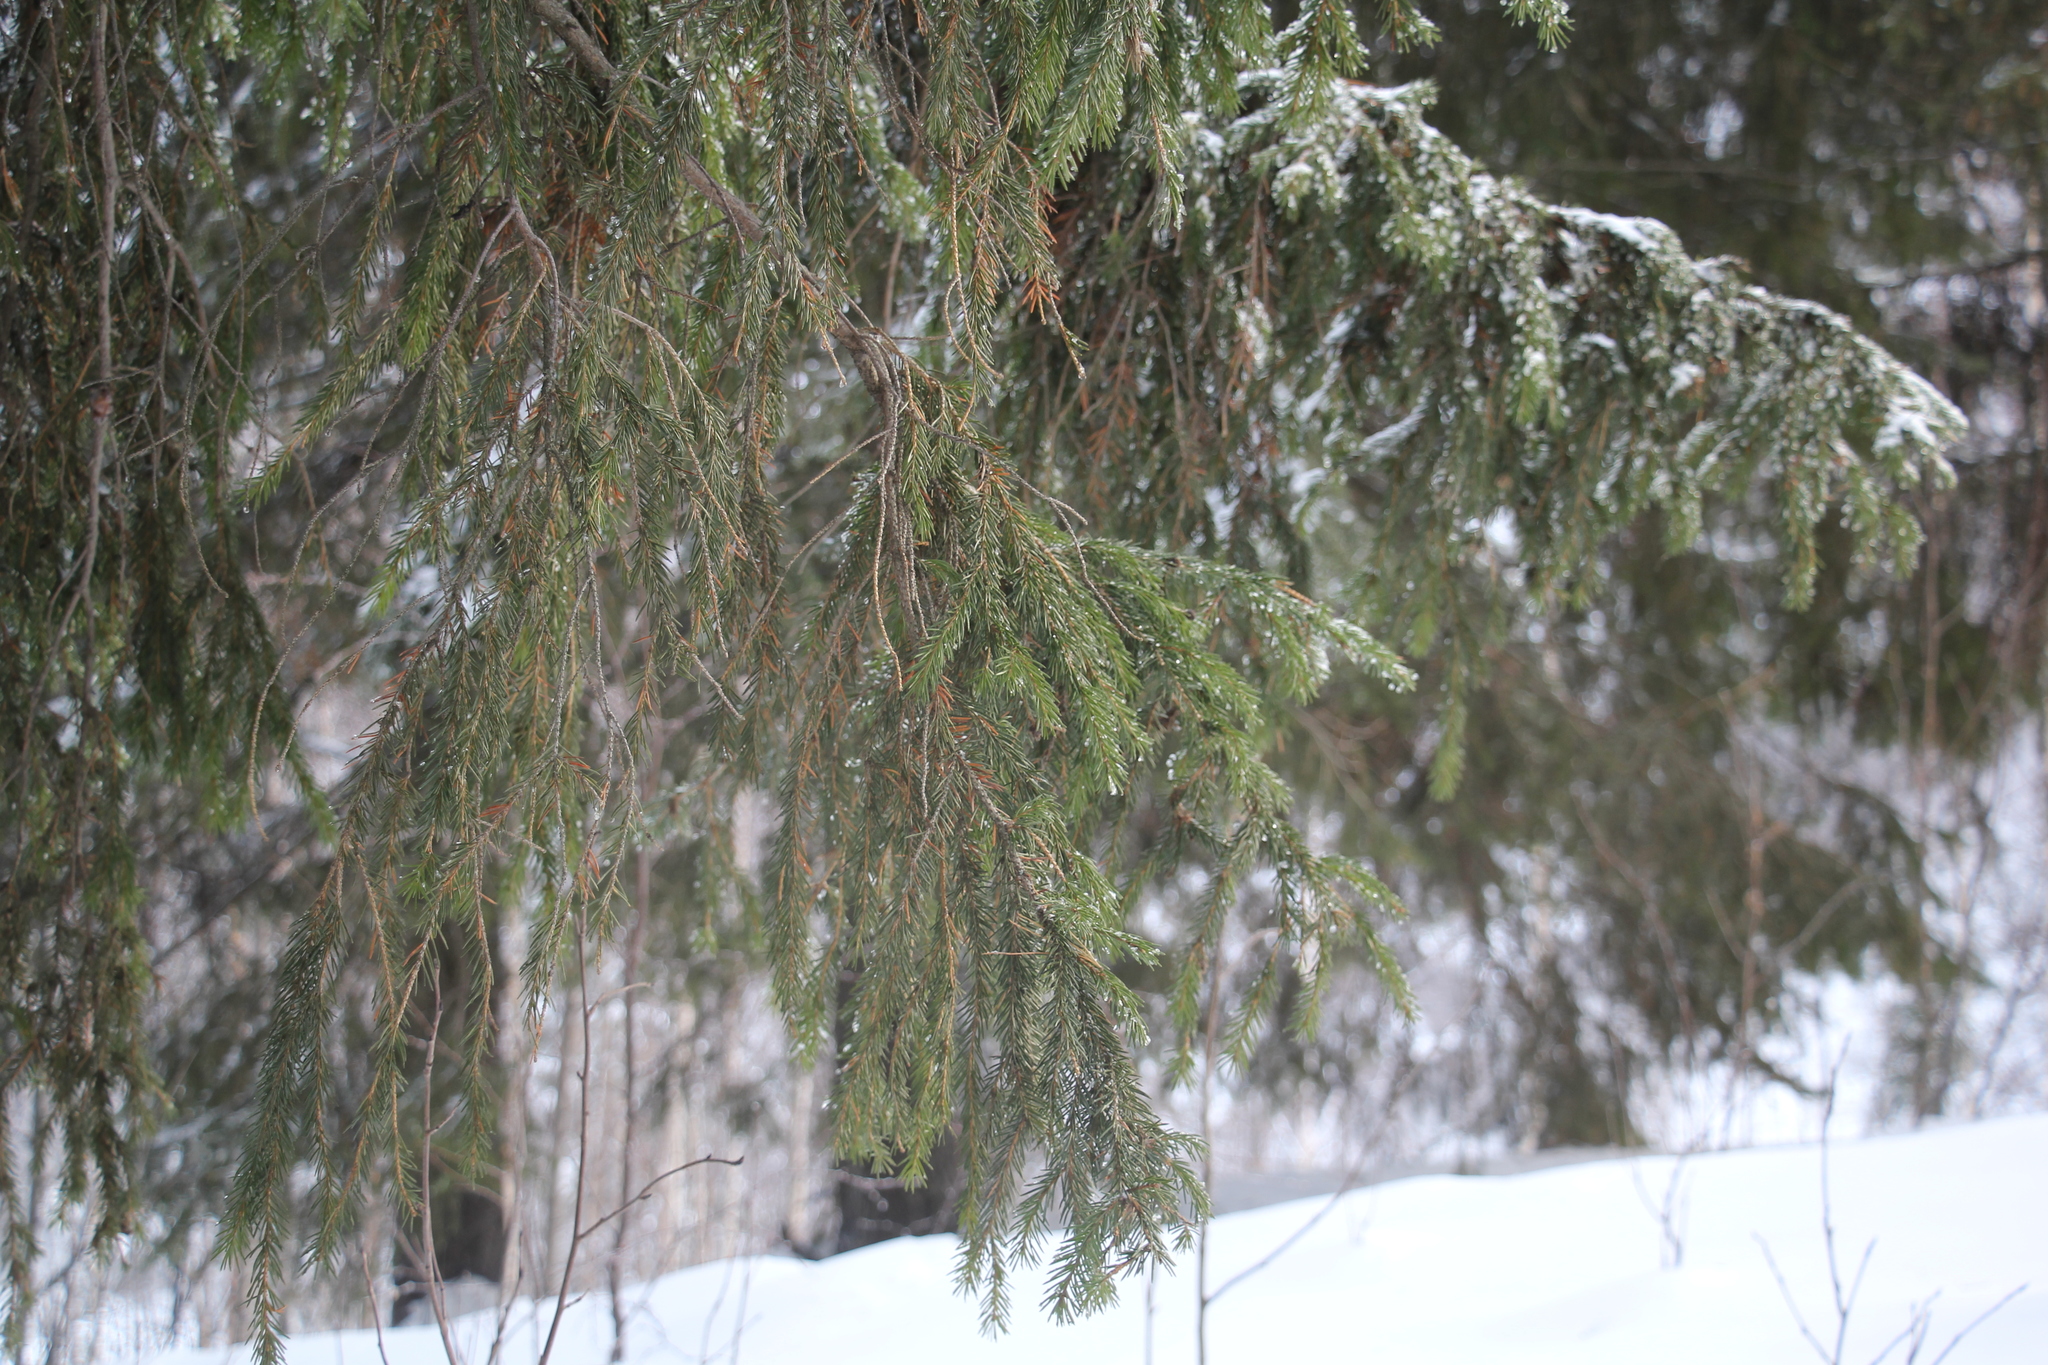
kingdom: Plantae
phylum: Tracheophyta
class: Pinopsida
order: Pinales
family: Pinaceae
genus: Picea
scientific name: Picea obovata
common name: Siberian spruce
